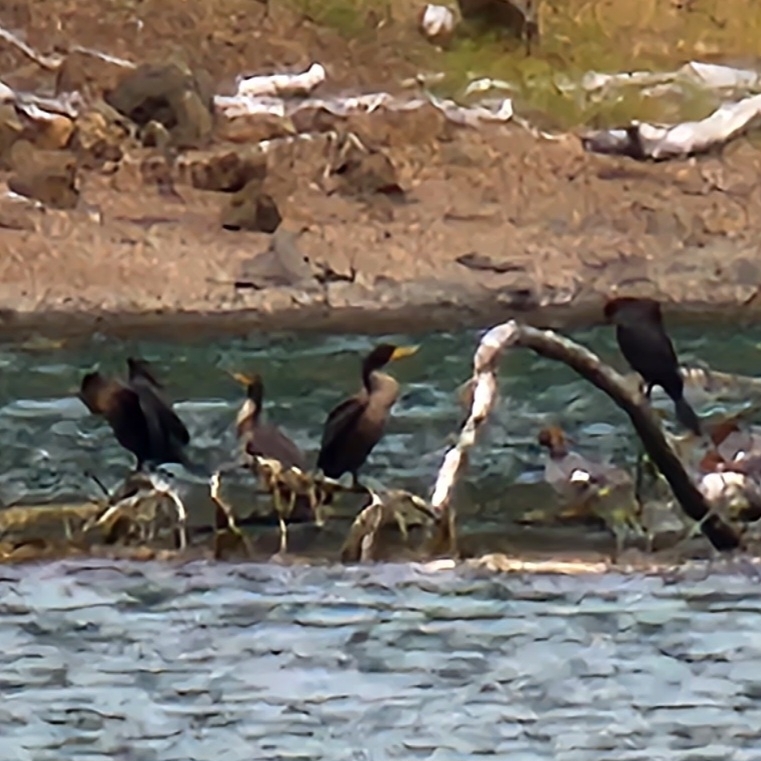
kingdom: Animalia
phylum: Chordata
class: Aves
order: Suliformes
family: Phalacrocoracidae
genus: Phalacrocorax
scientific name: Phalacrocorax auritus
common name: Double-crested cormorant
